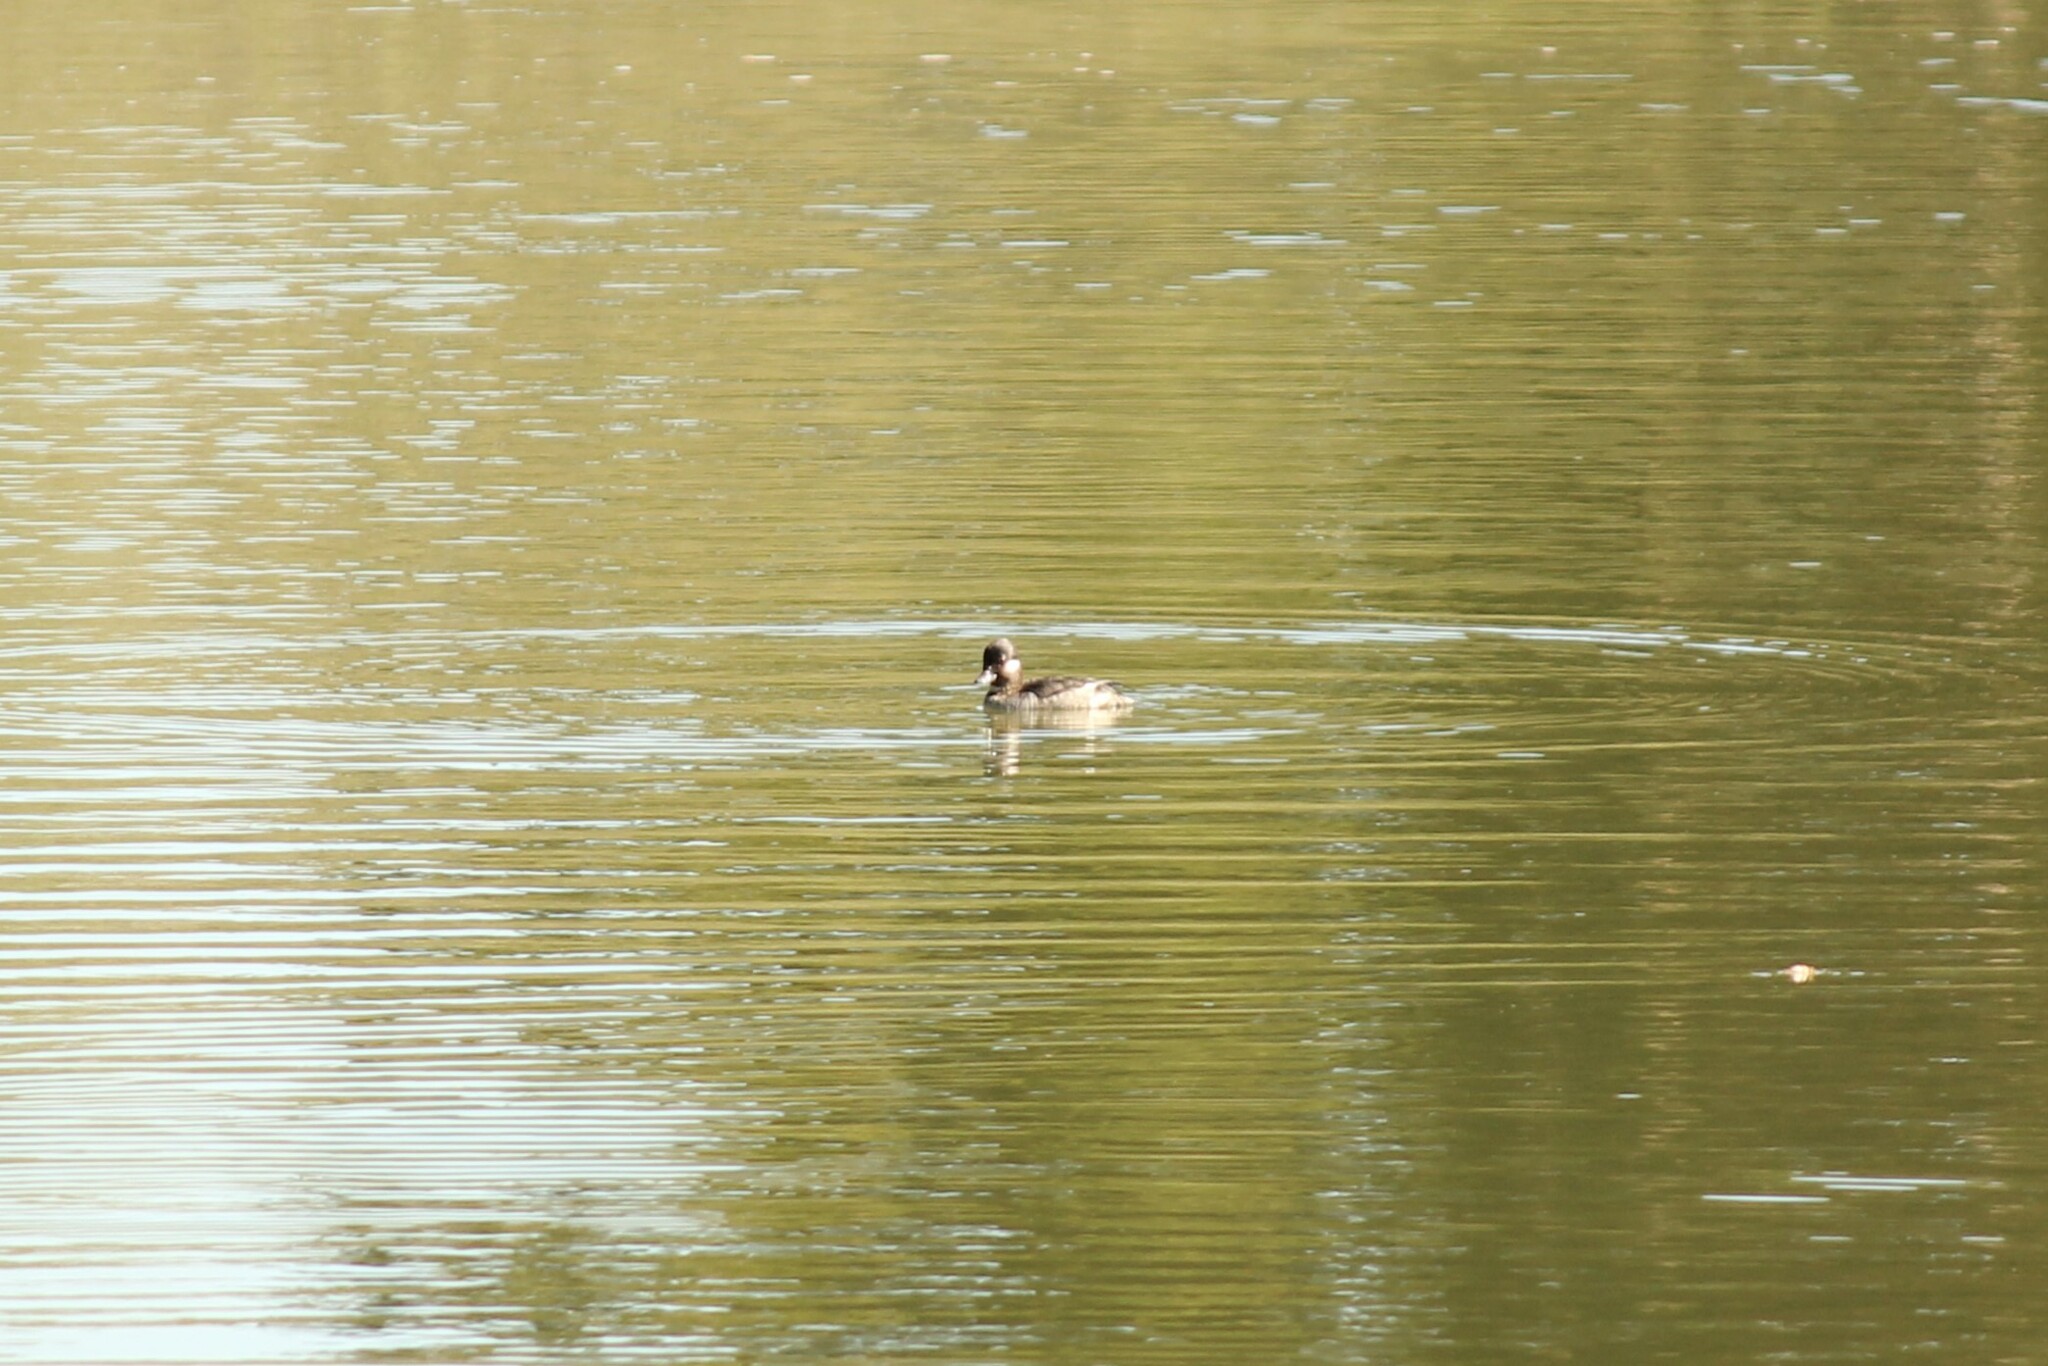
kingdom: Animalia
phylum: Chordata
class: Aves
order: Anseriformes
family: Anatidae
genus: Bucephala
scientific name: Bucephala albeola
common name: Bufflehead
